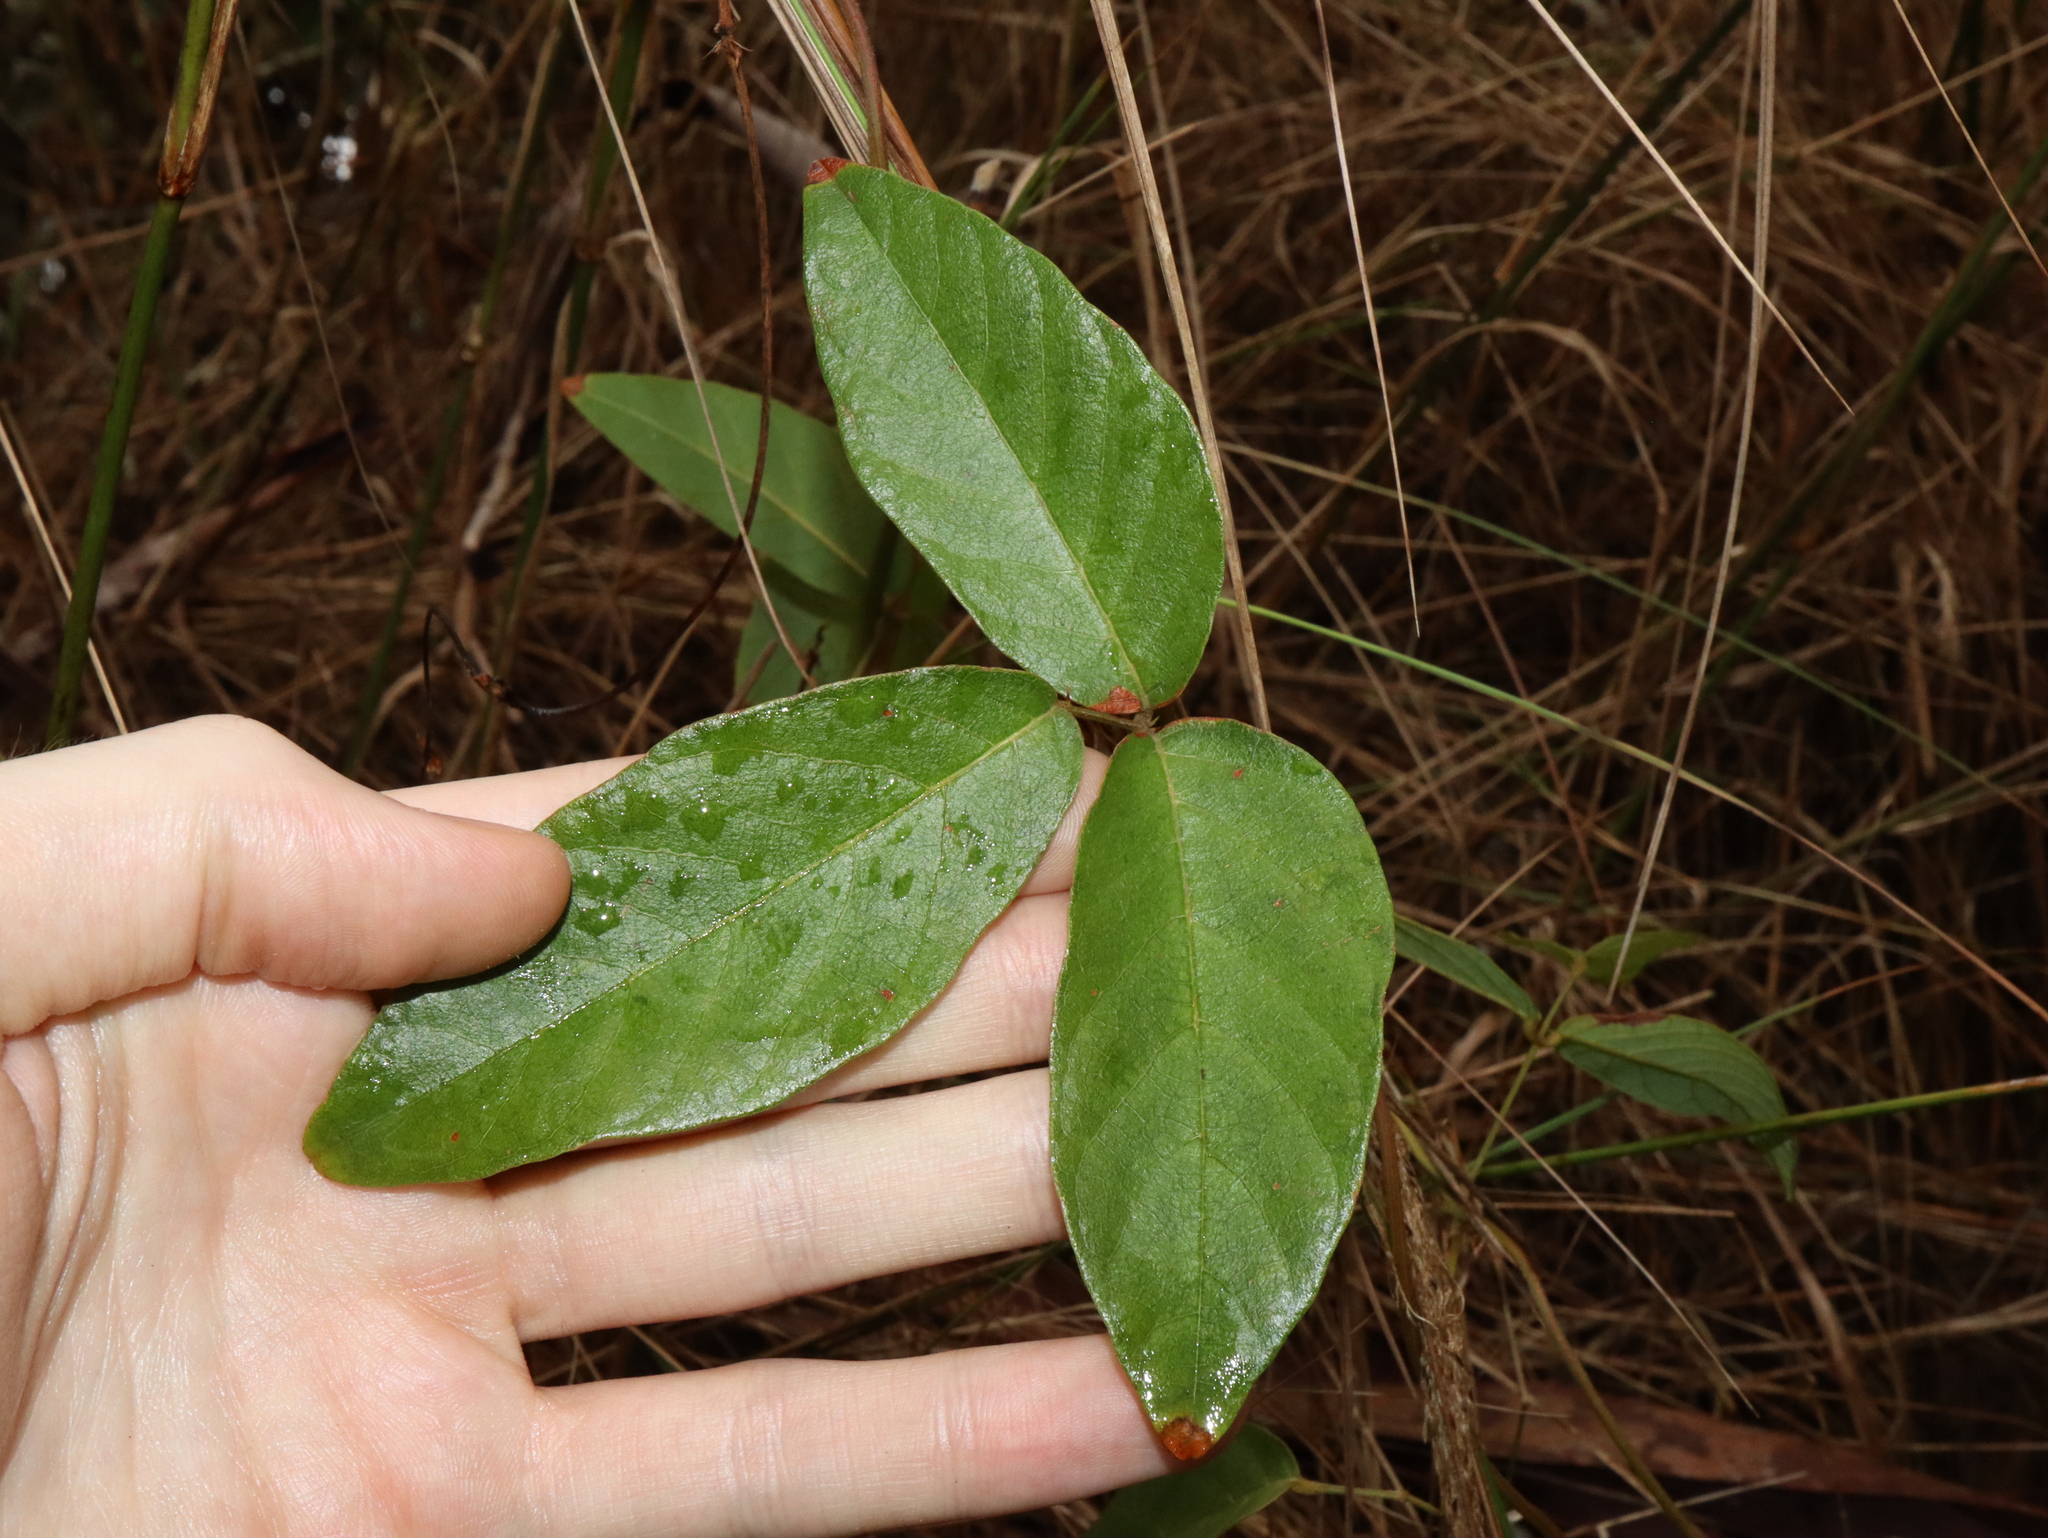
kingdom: Plantae
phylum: Tracheophyta
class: Magnoliopsida
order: Fabales
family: Fabaceae
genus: Kennedia
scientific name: Kennedia rubicunda
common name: Red kennedy-pea
